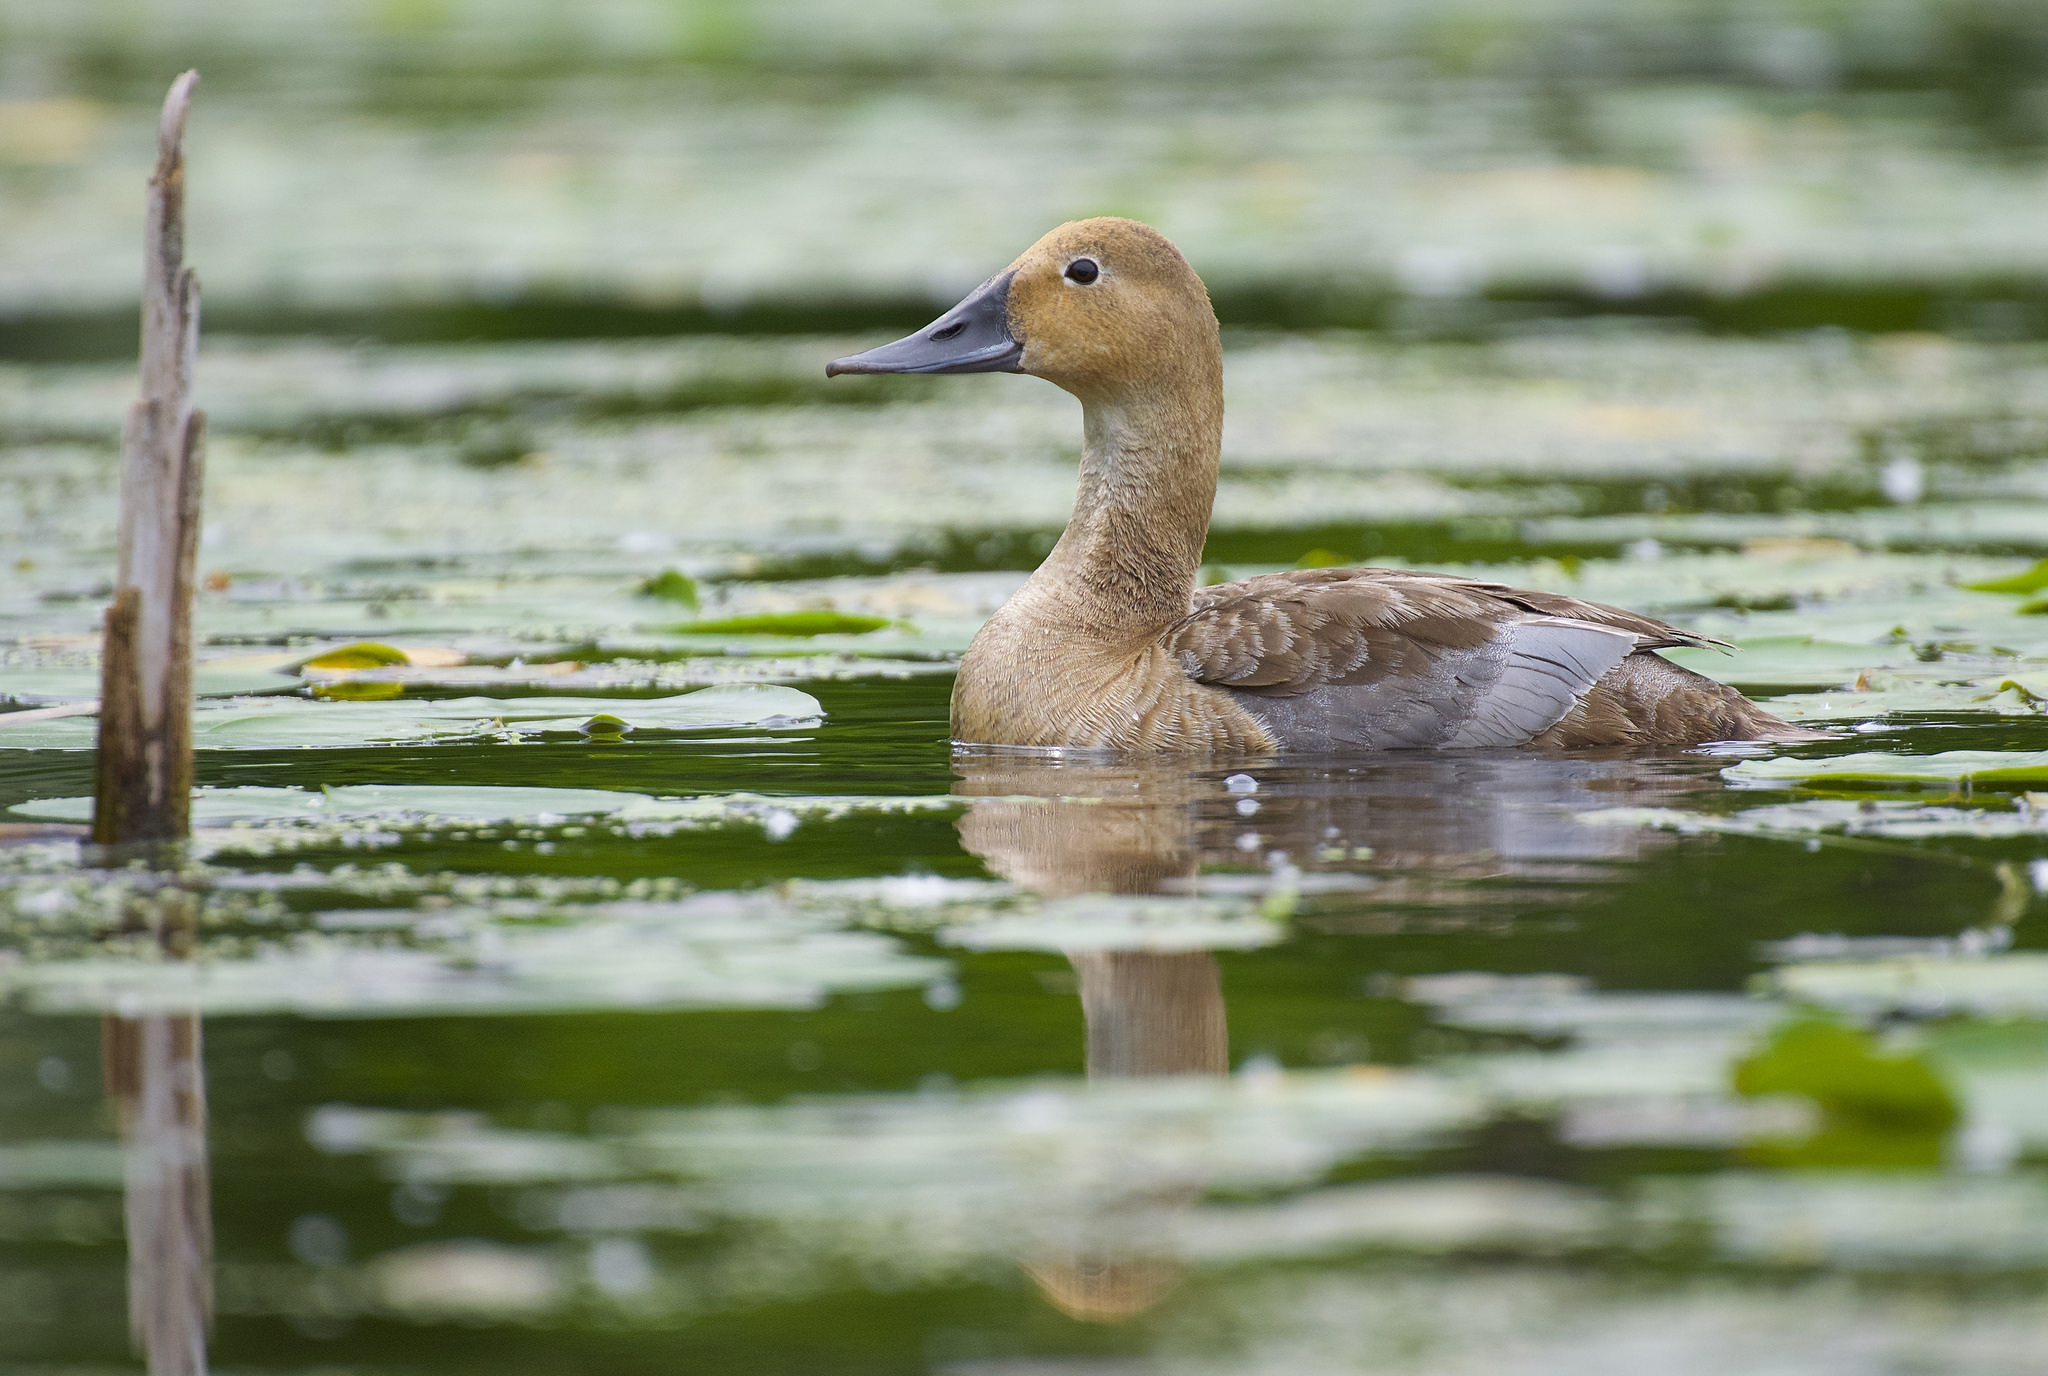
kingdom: Animalia
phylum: Chordata
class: Aves
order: Anseriformes
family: Anatidae
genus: Aythya
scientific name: Aythya valisineria
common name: Canvasback
